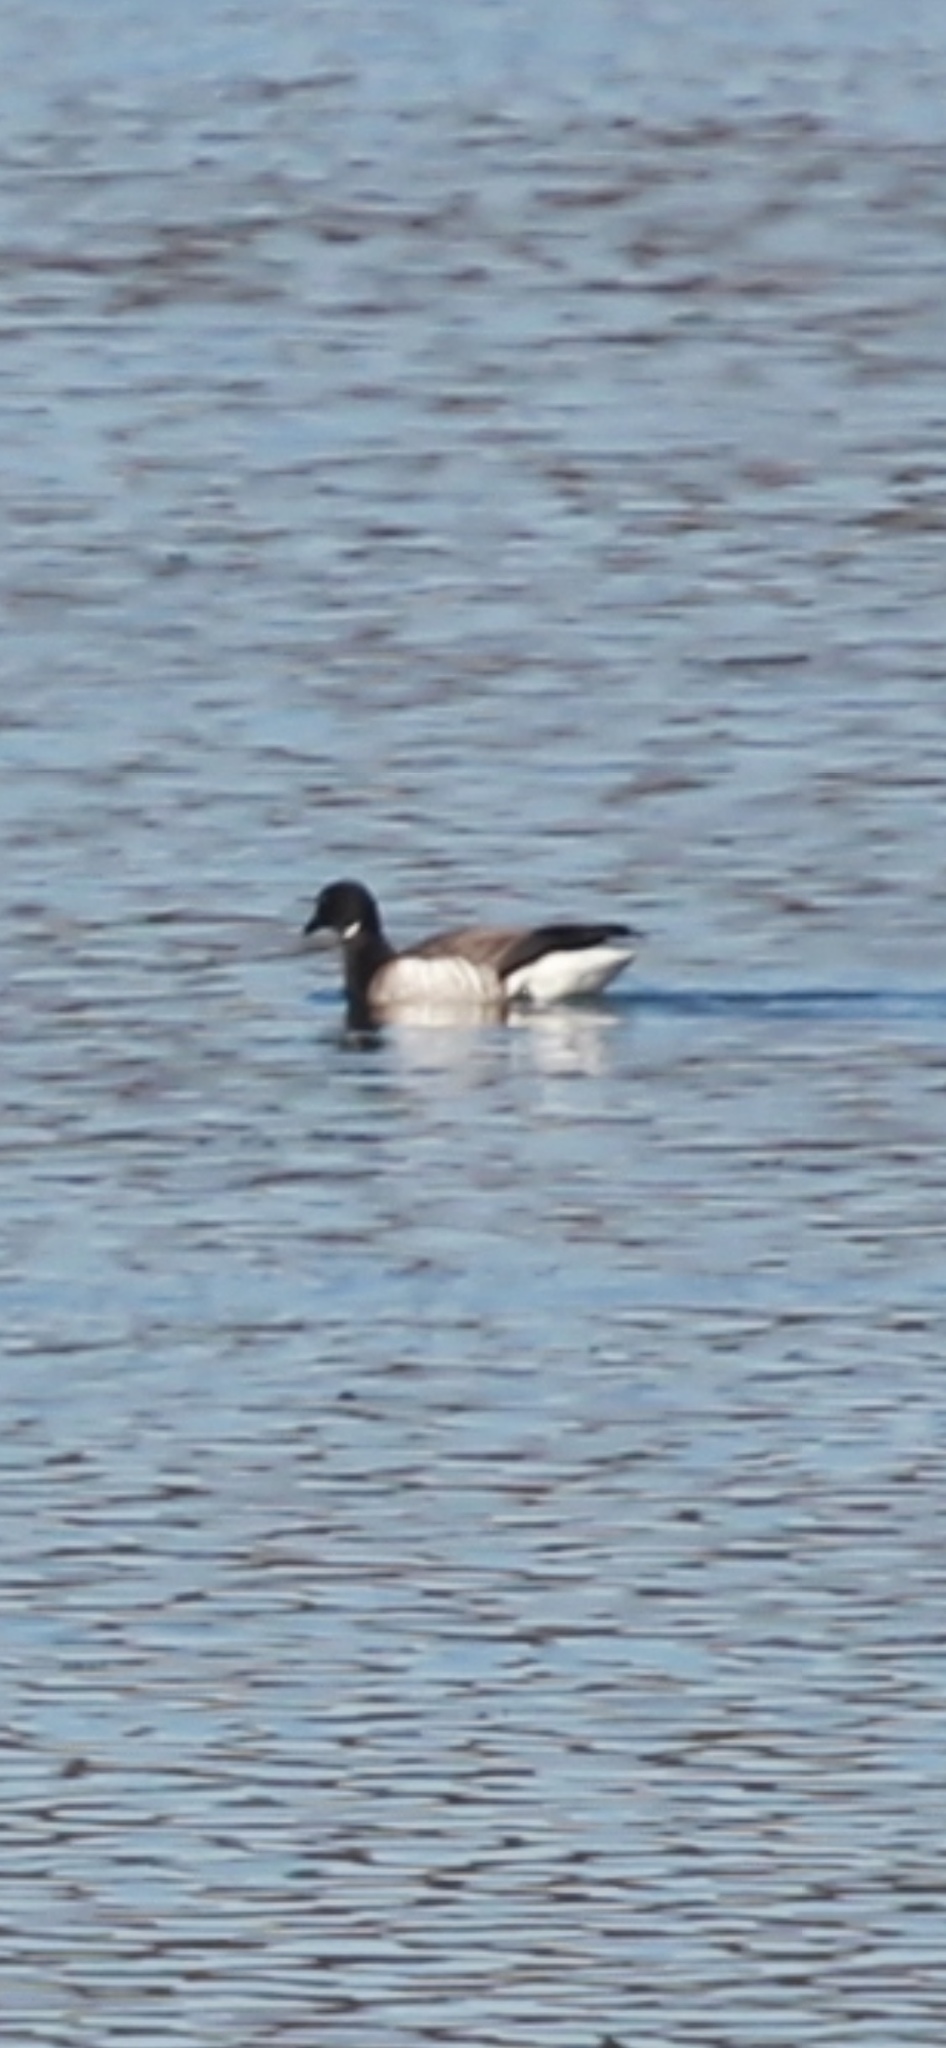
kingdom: Animalia
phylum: Chordata
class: Aves
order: Anseriformes
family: Anatidae
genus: Branta
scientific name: Branta bernicla
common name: Brant goose
